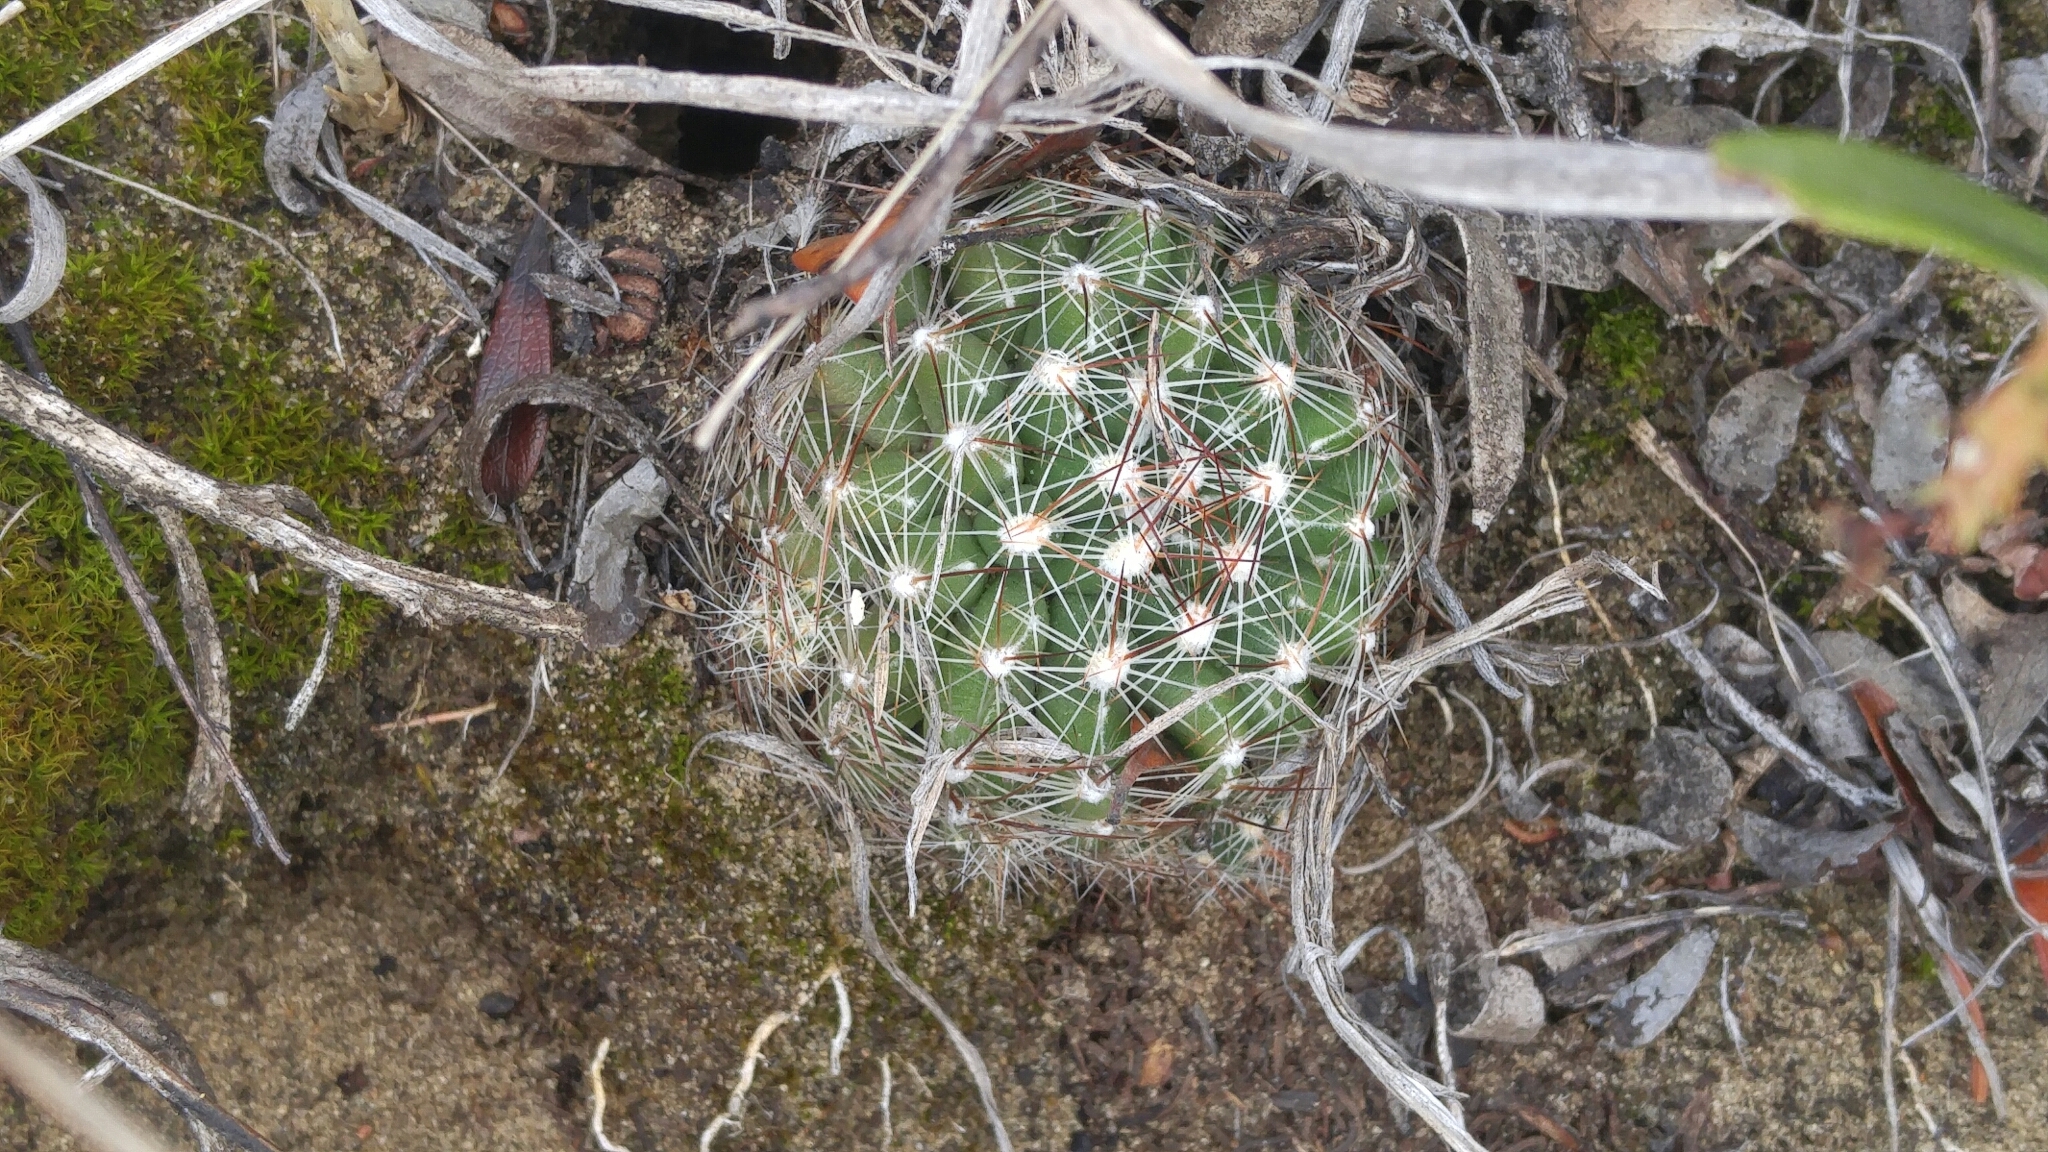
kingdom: Plantae
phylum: Tracheophyta
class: Magnoliopsida
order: Caryophyllales
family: Cactaceae
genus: Pelecyphora
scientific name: Pelecyphora vivipara
